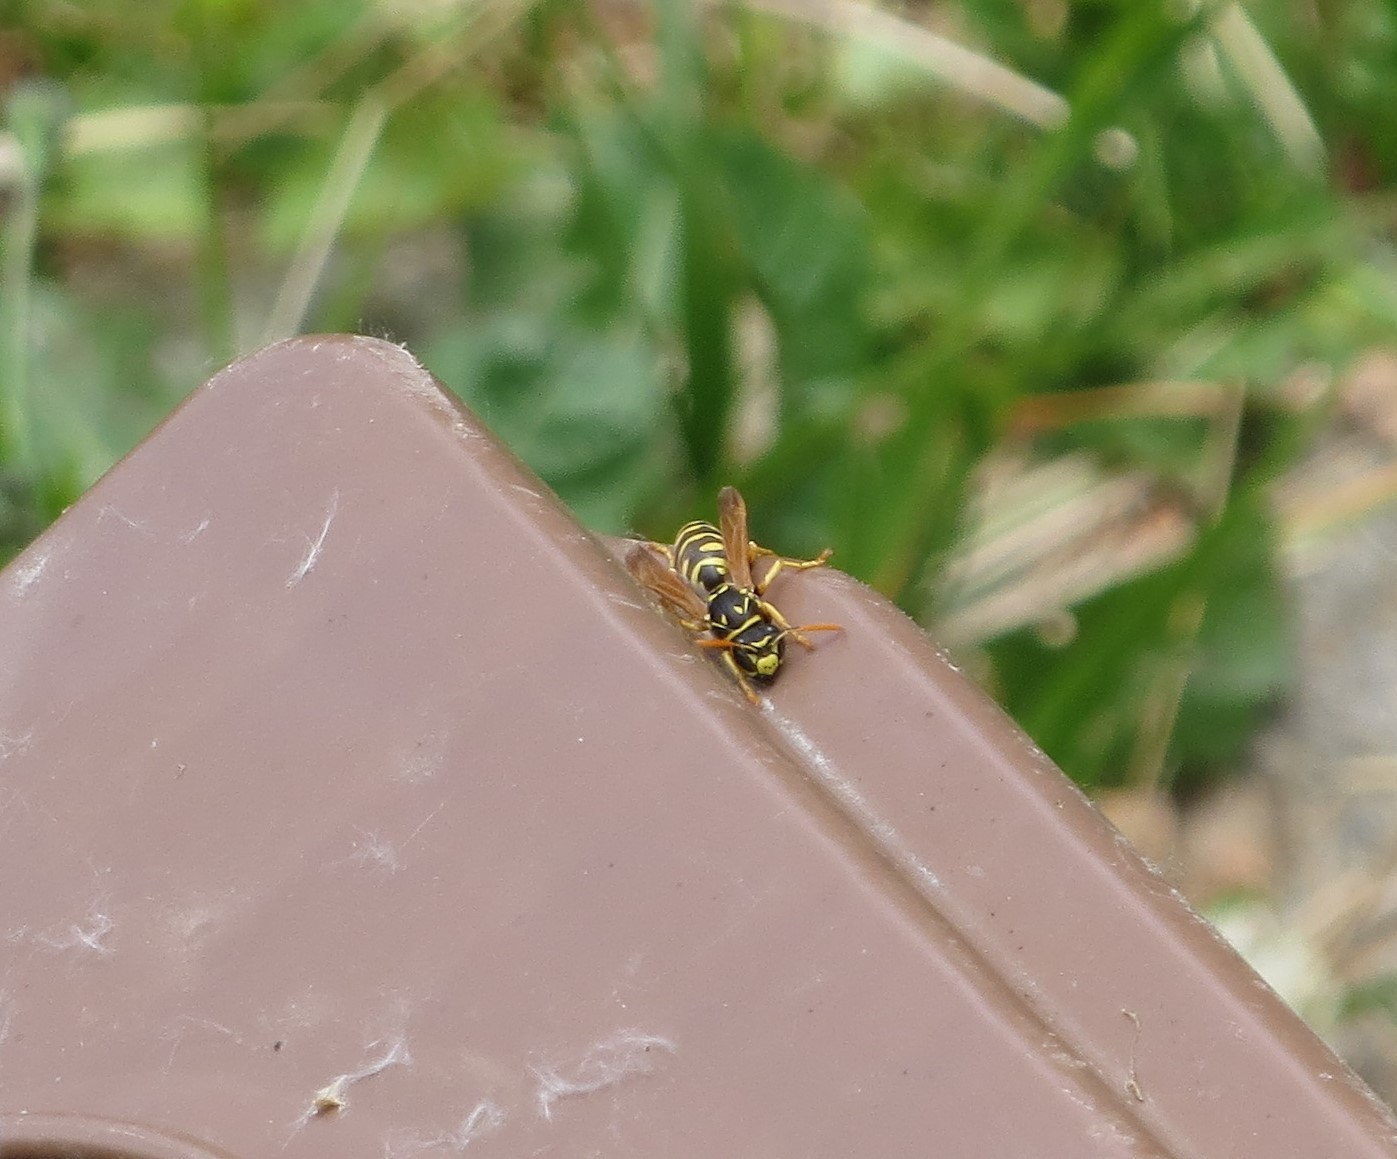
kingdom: Animalia
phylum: Arthropoda
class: Insecta
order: Hymenoptera
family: Eumenidae
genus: Polistes
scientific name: Polistes dominula
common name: Paper wasp
